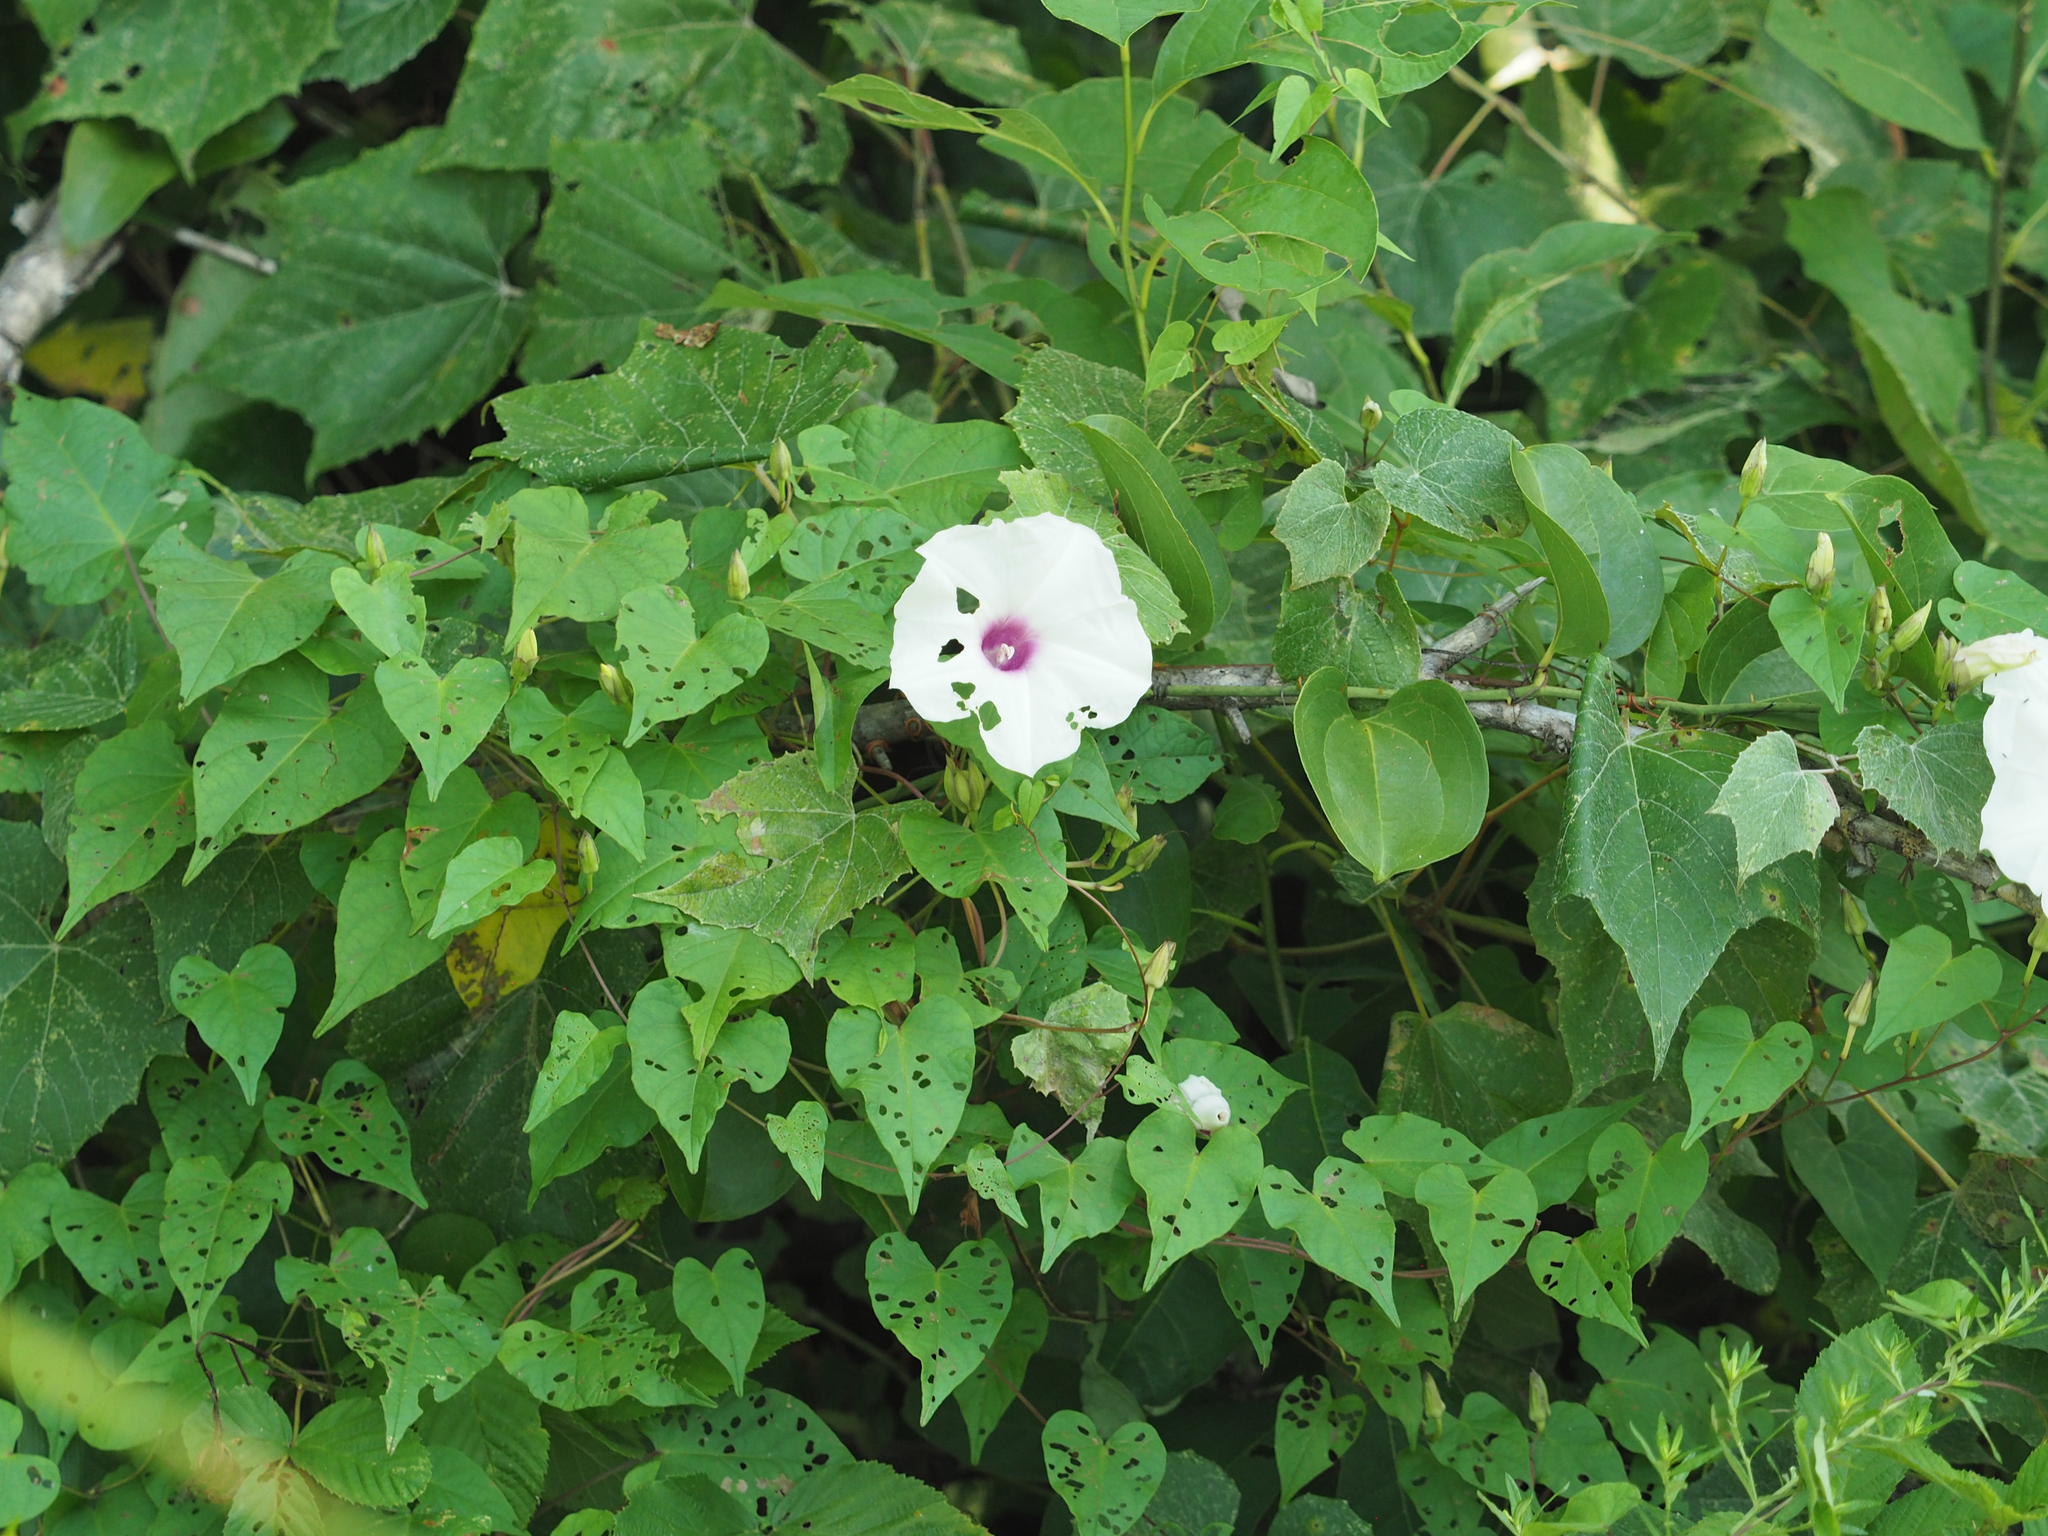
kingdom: Plantae
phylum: Tracheophyta
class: Magnoliopsida
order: Solanales
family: Convolvulaceae
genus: Ipomoea
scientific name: Ipomoea pandurata
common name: Man-of-the-earth
